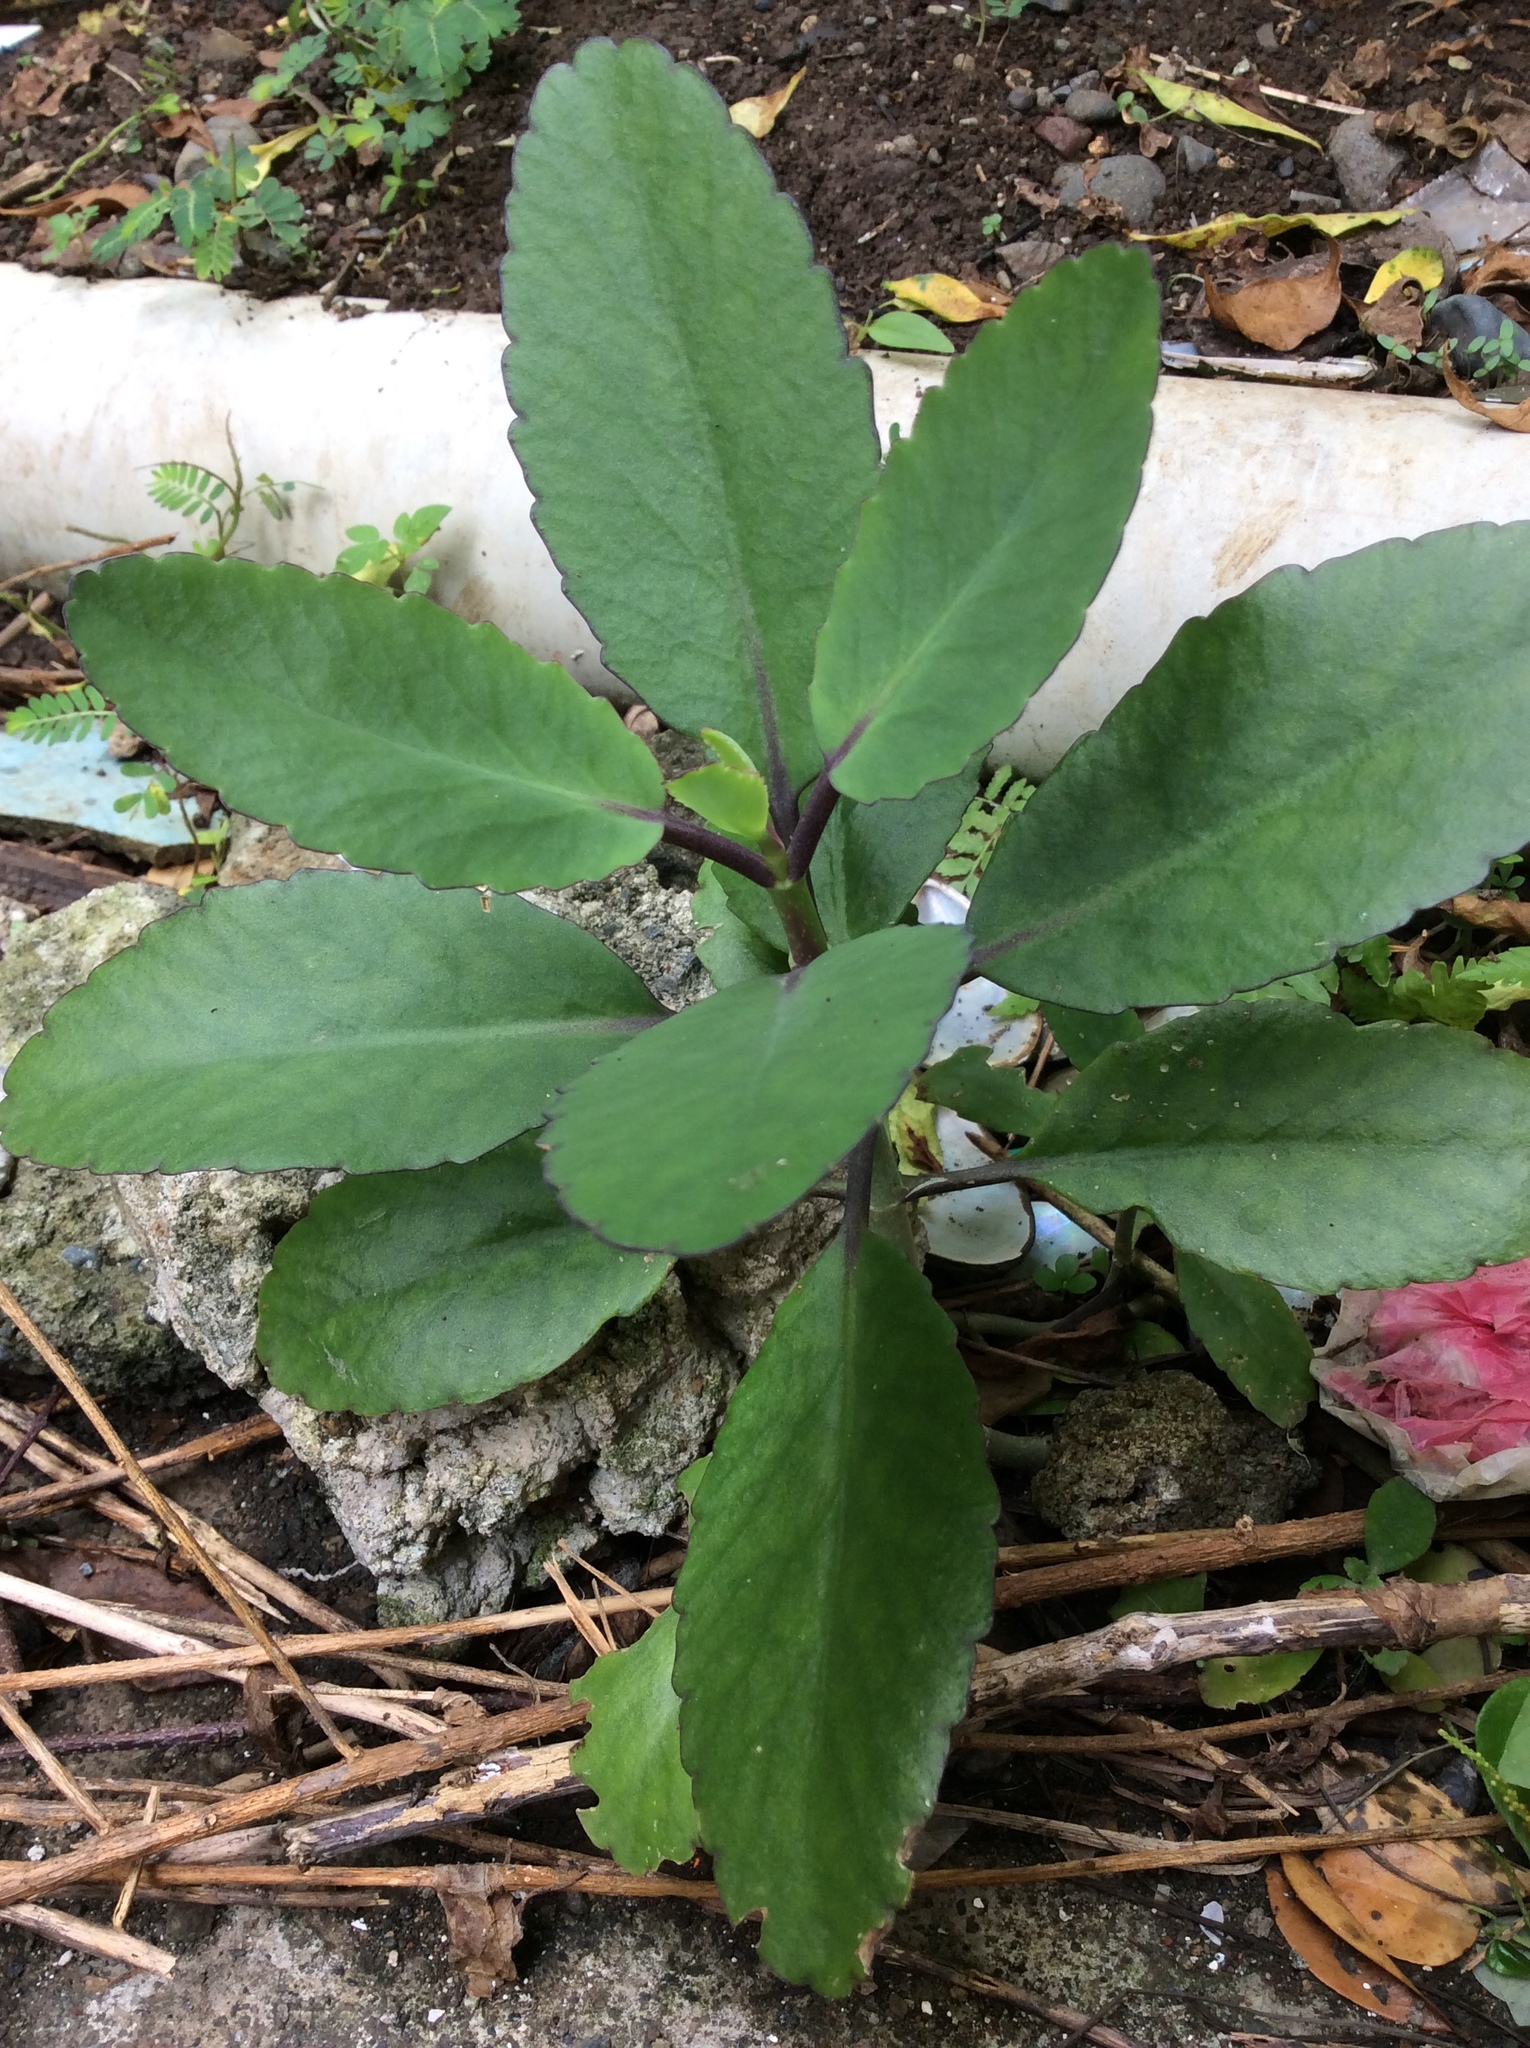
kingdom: Plantae
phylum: Tracheophyta
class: Magnoliopsida
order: Saxifragales
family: Crassulaceae
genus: Kalanchoe
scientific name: Kalanchoe pinnata
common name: Cathedral bells
